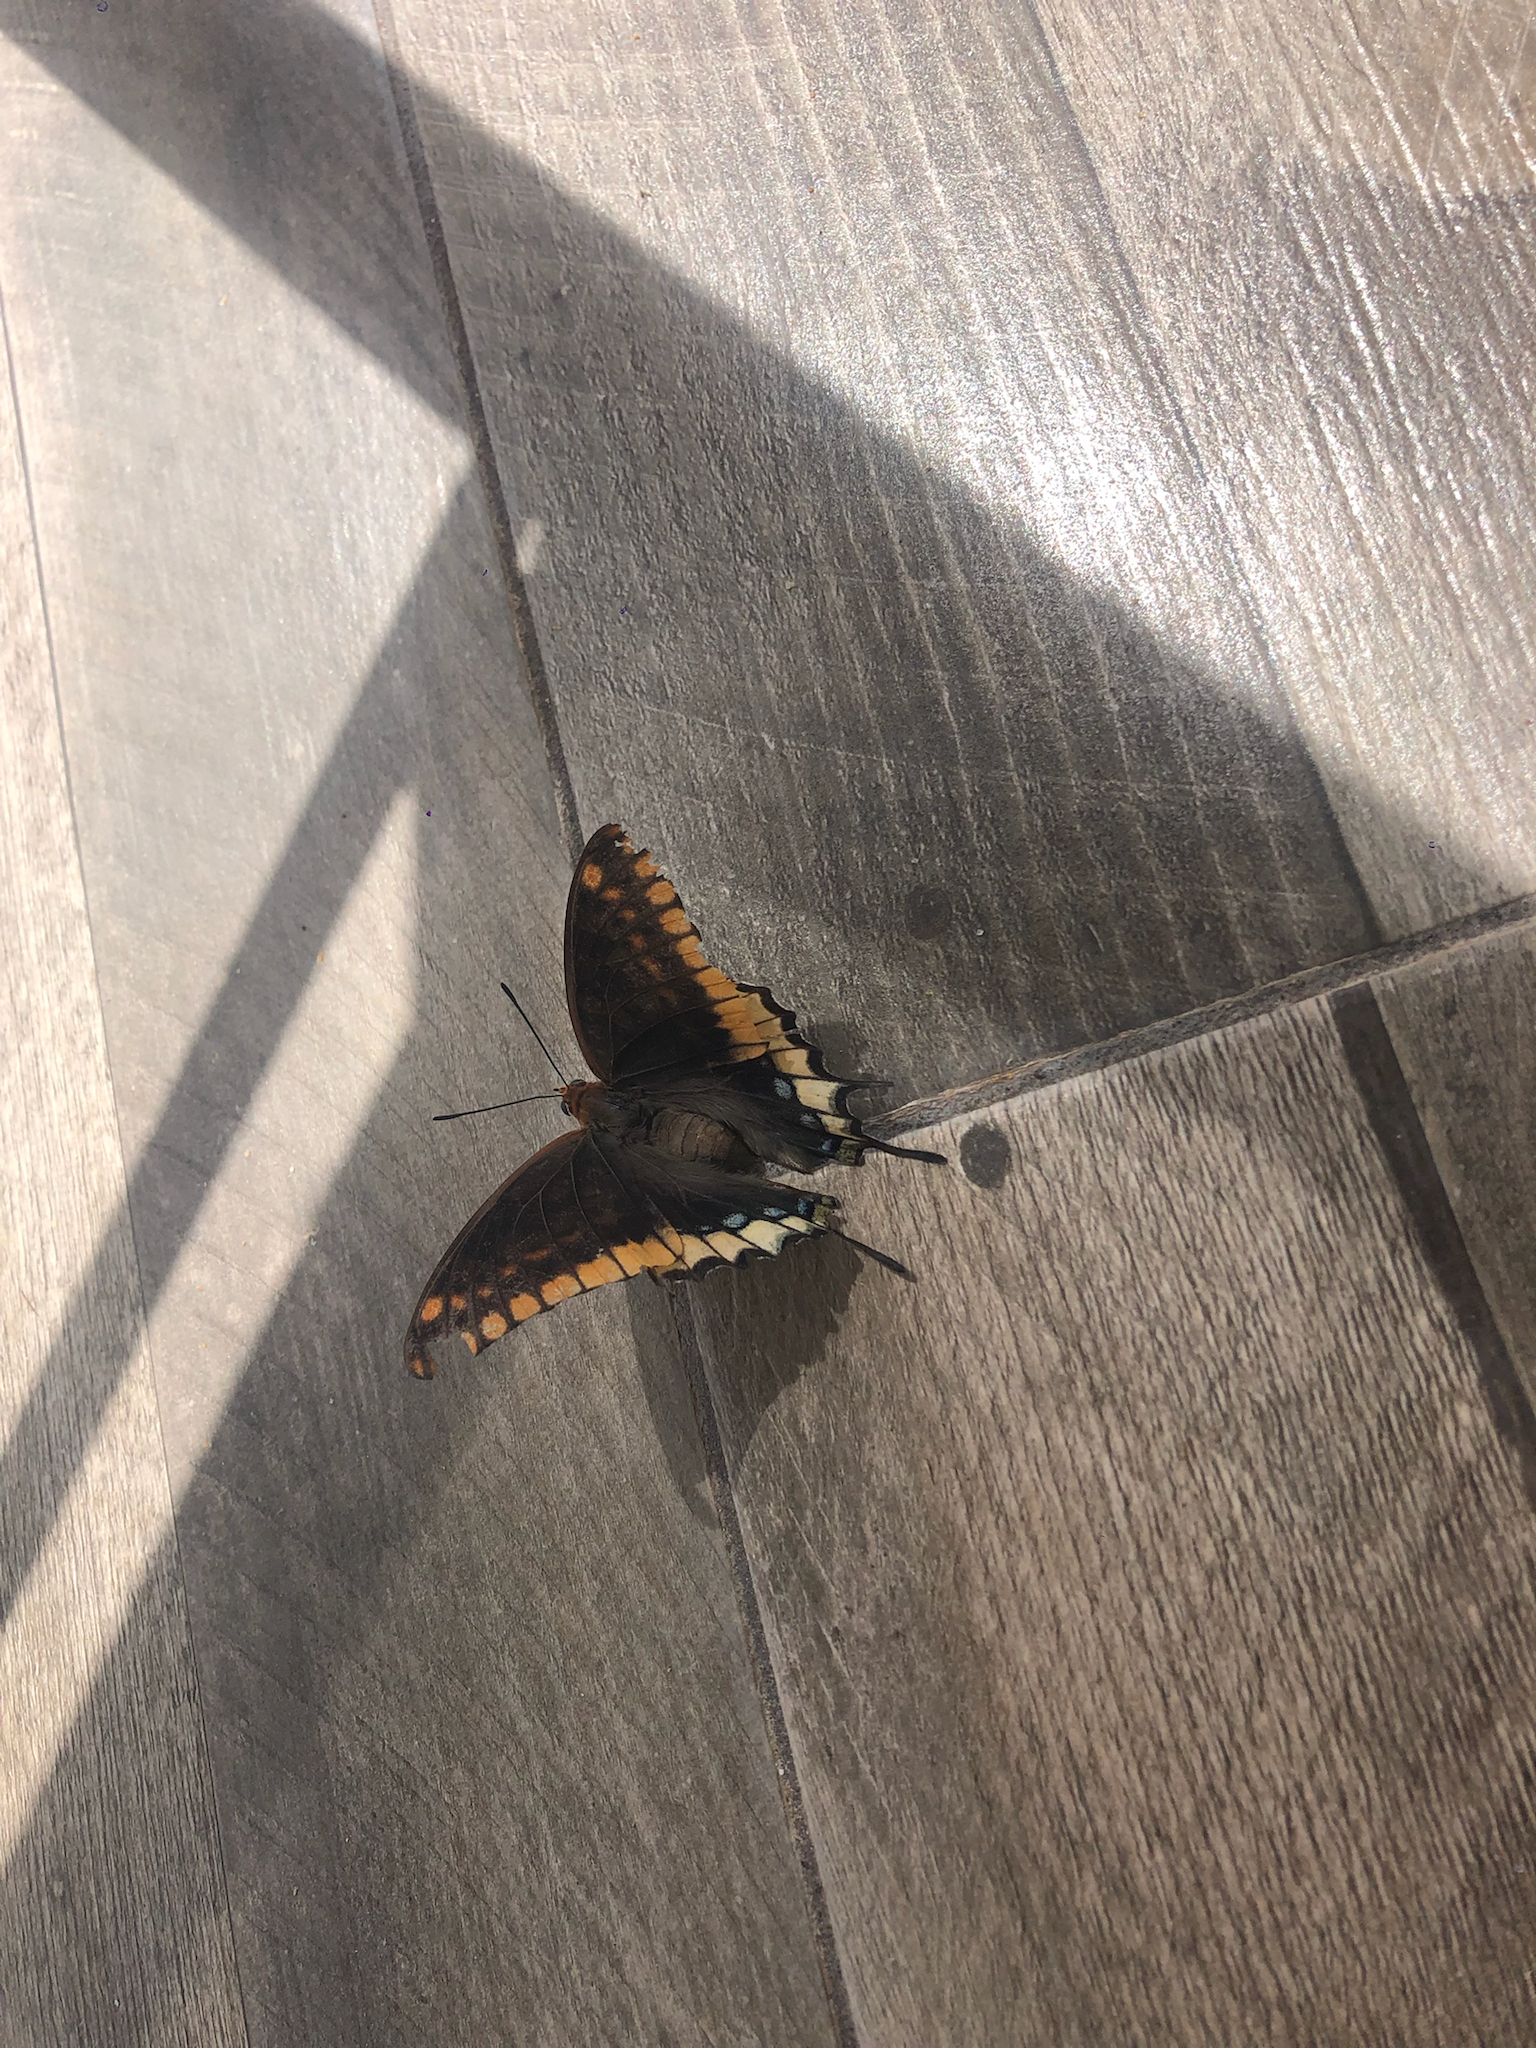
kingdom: Animalia
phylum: Arthropoda
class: Insecta
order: Lepidoptera
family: Nymphalidae
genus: Charaxes
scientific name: Charaxes jasius
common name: Two tailed pasha
